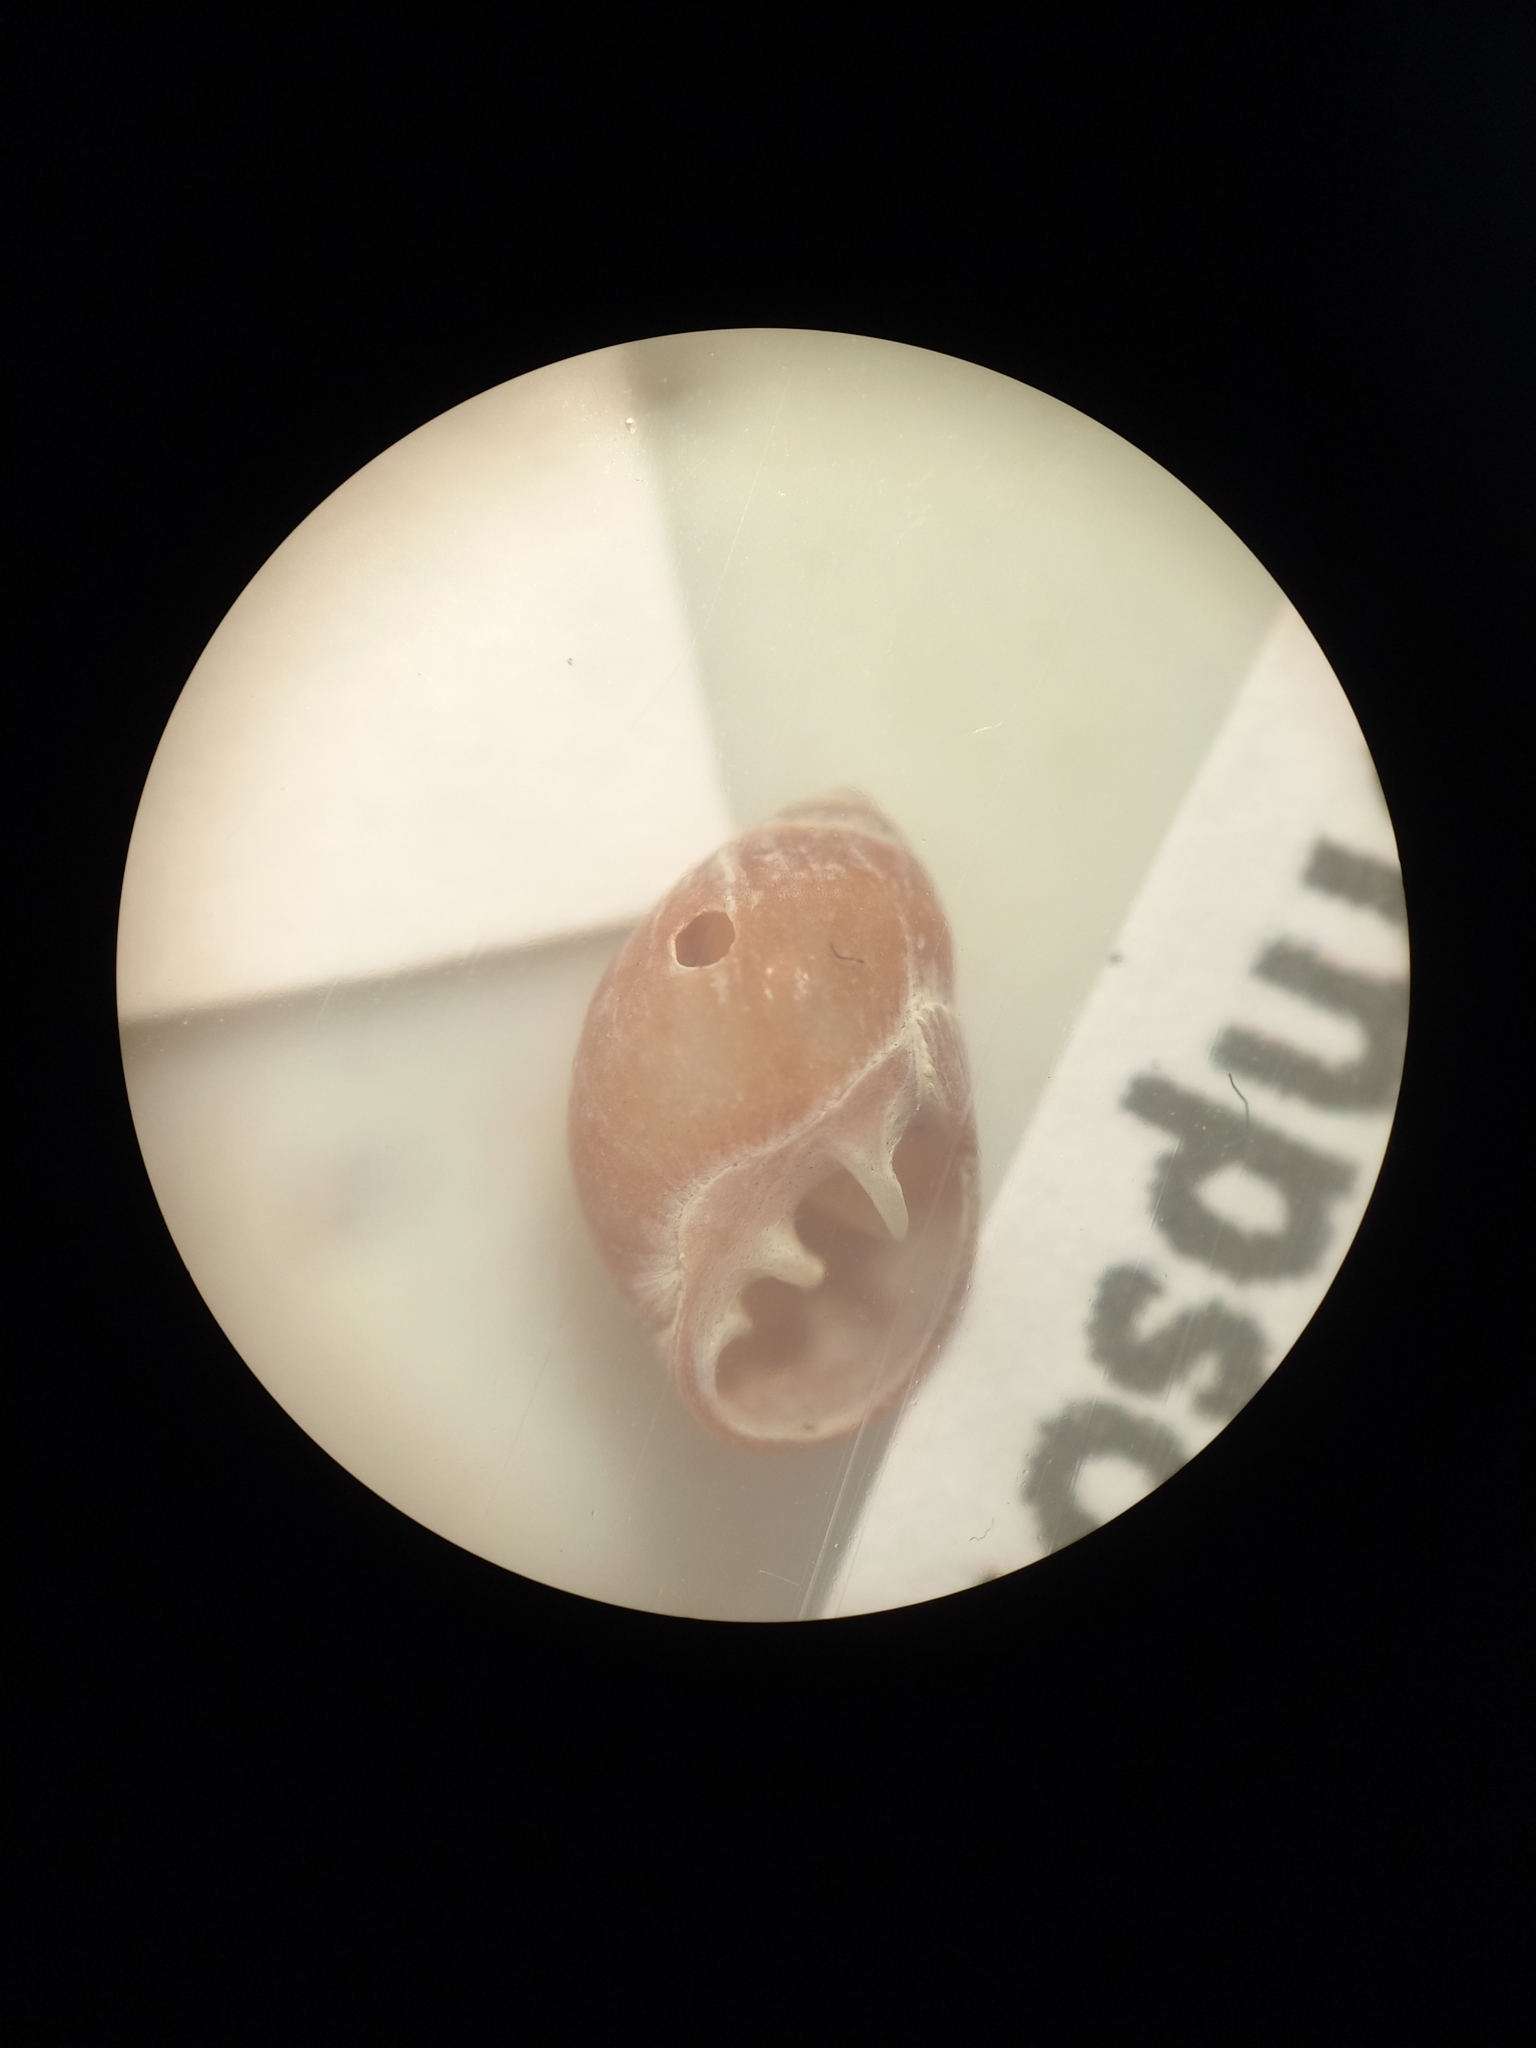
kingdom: Animalia
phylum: Mollusca
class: Gastropoda
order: Ellobiida
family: Ellobiidae
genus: Marinula
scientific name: Marinula filholi
